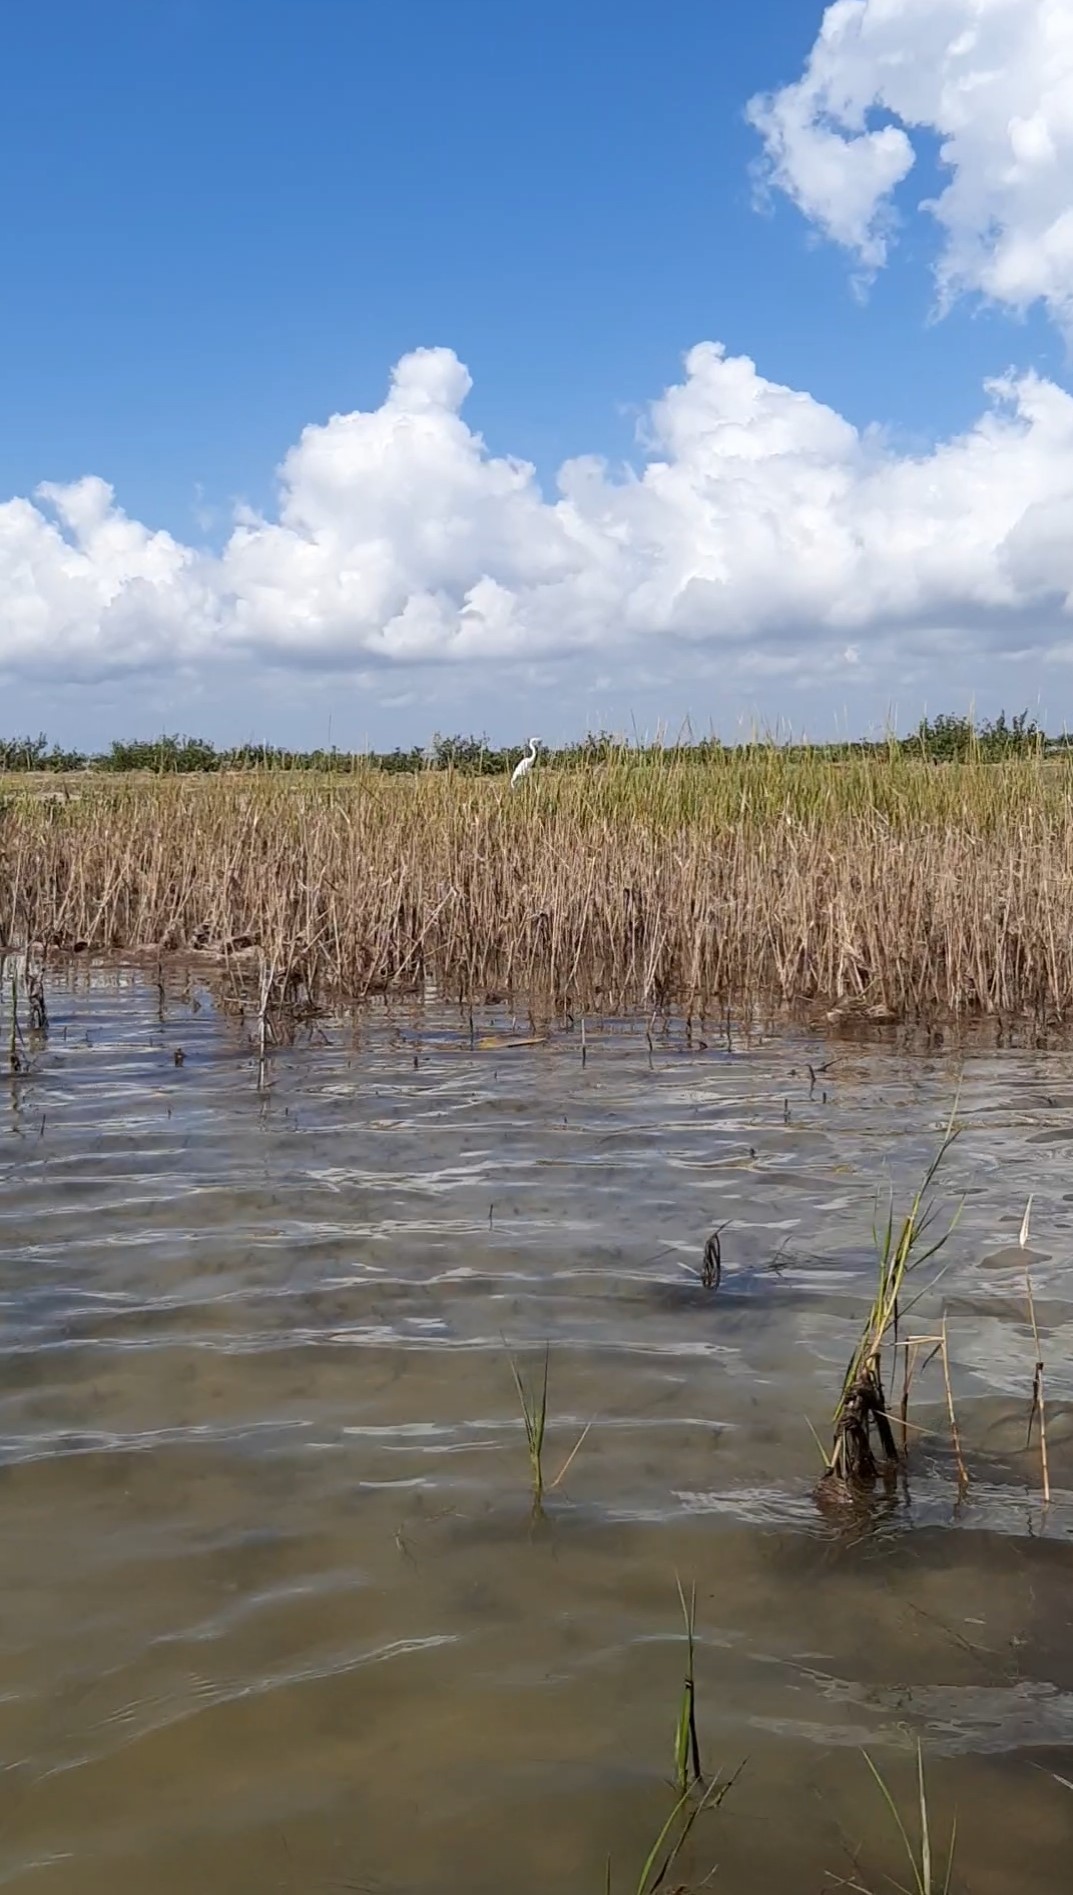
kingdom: Animalia
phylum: Chordata
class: Aves
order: Pelecaniformes
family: Ardeidae
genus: Ardea
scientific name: Ardea alba
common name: Great egret
